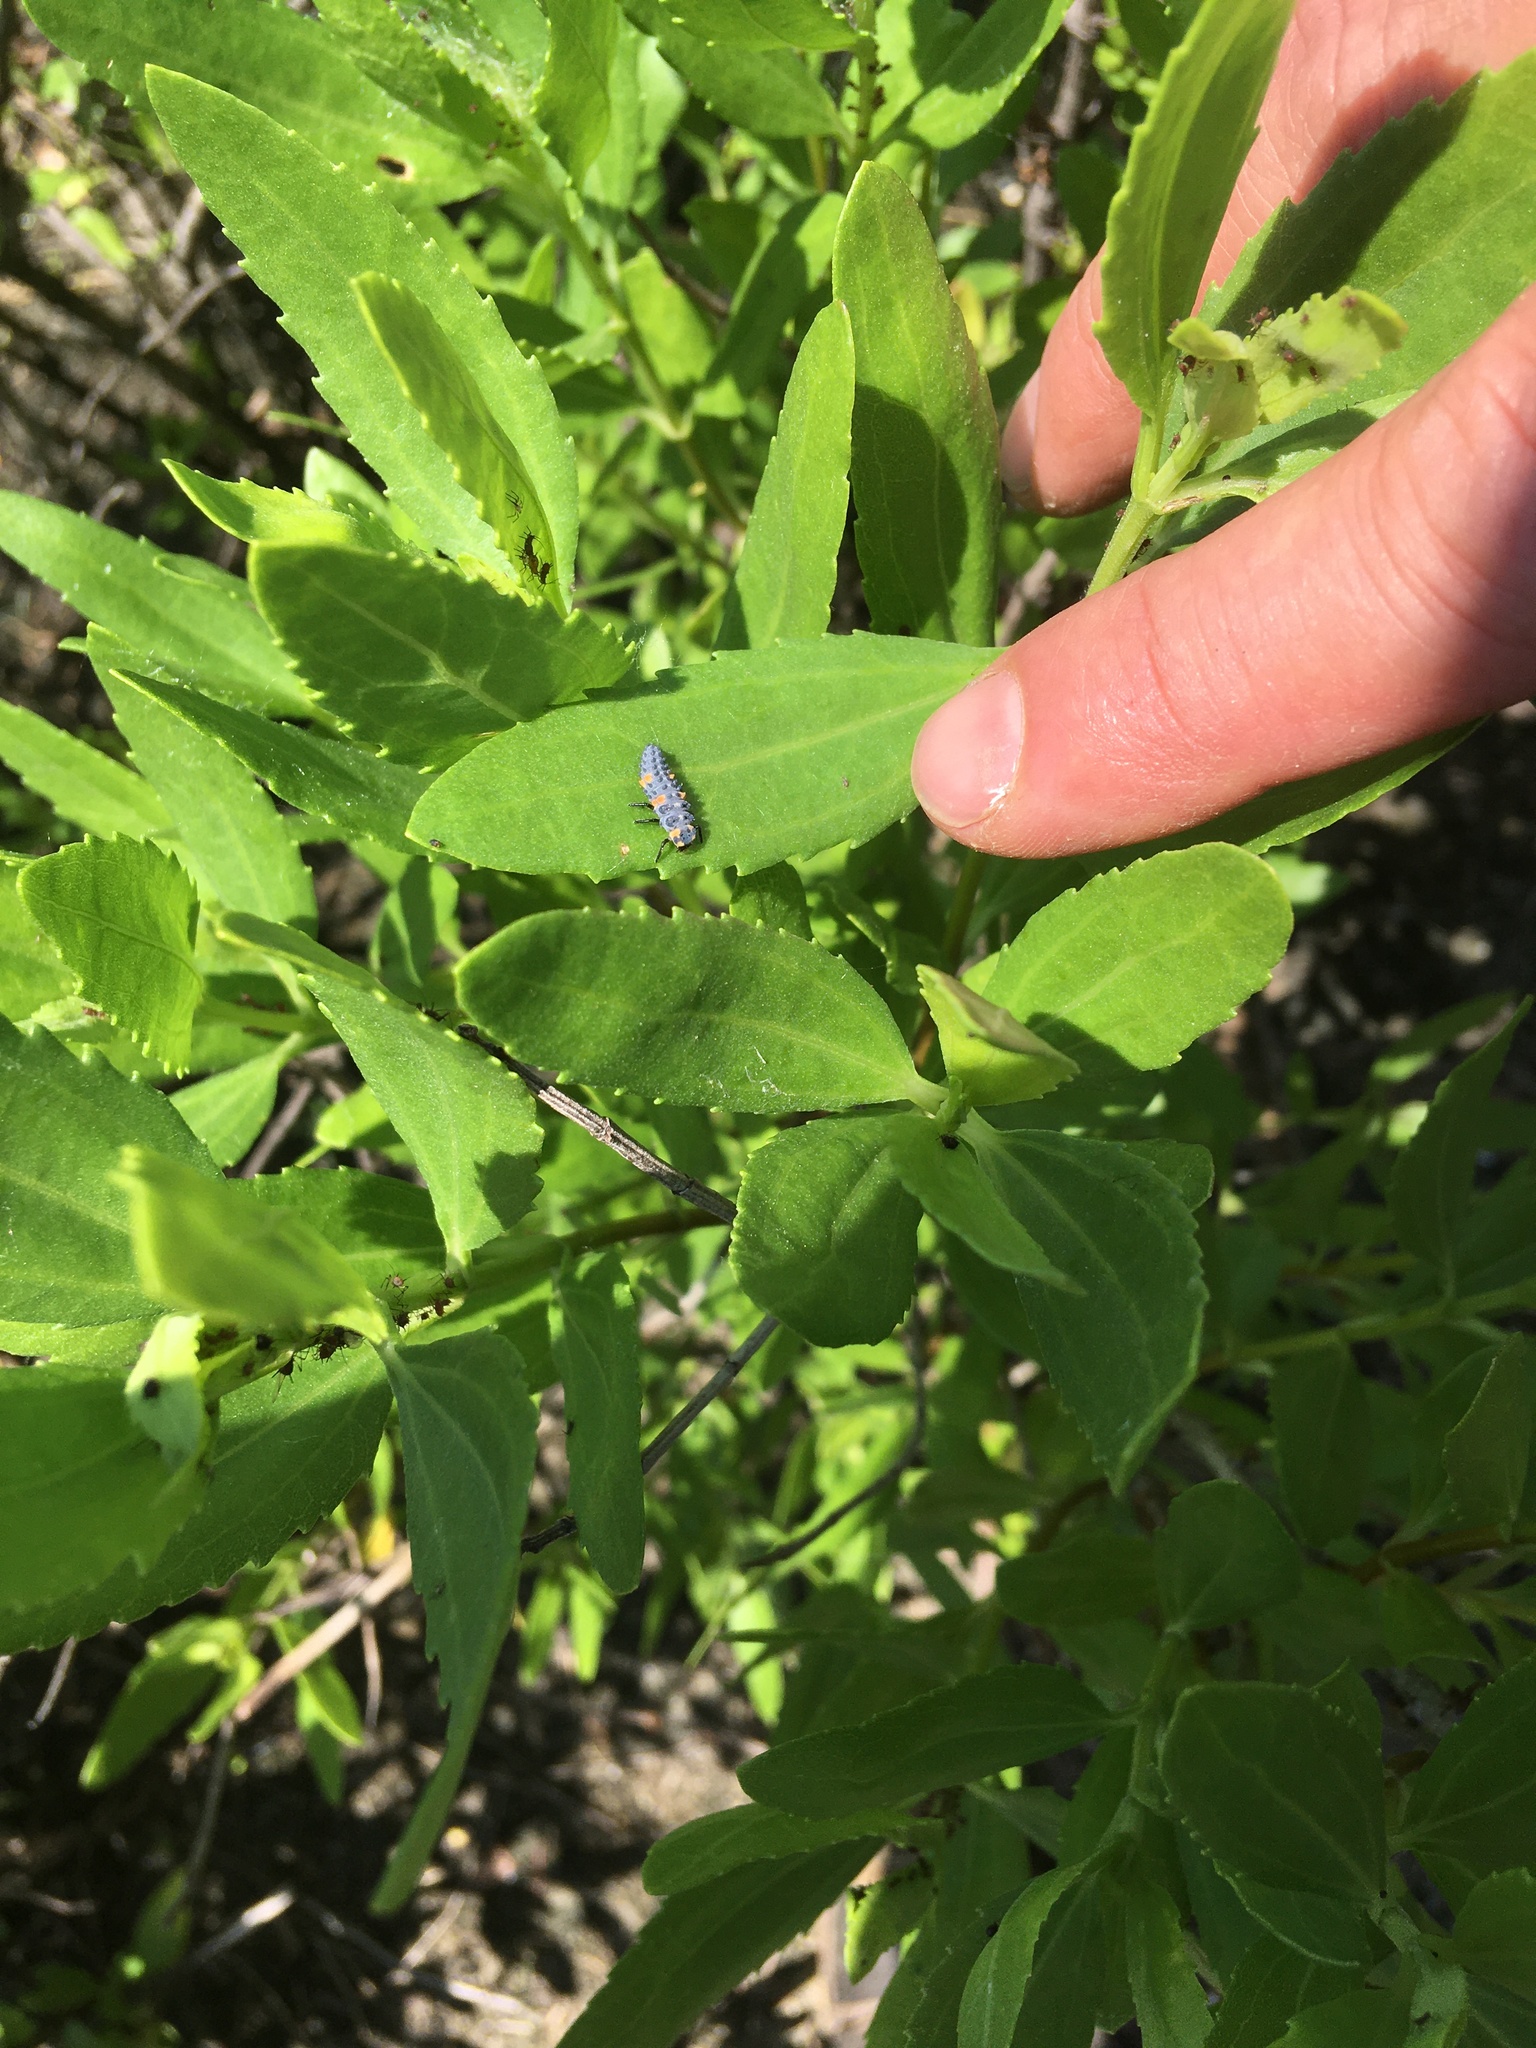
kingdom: Animalia
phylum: Arthropoda
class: Insecta
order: Coleoptera
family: Coccinellidae
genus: Coccinella
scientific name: Coccinella septempunctata
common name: Sevenspotted lady beetle
